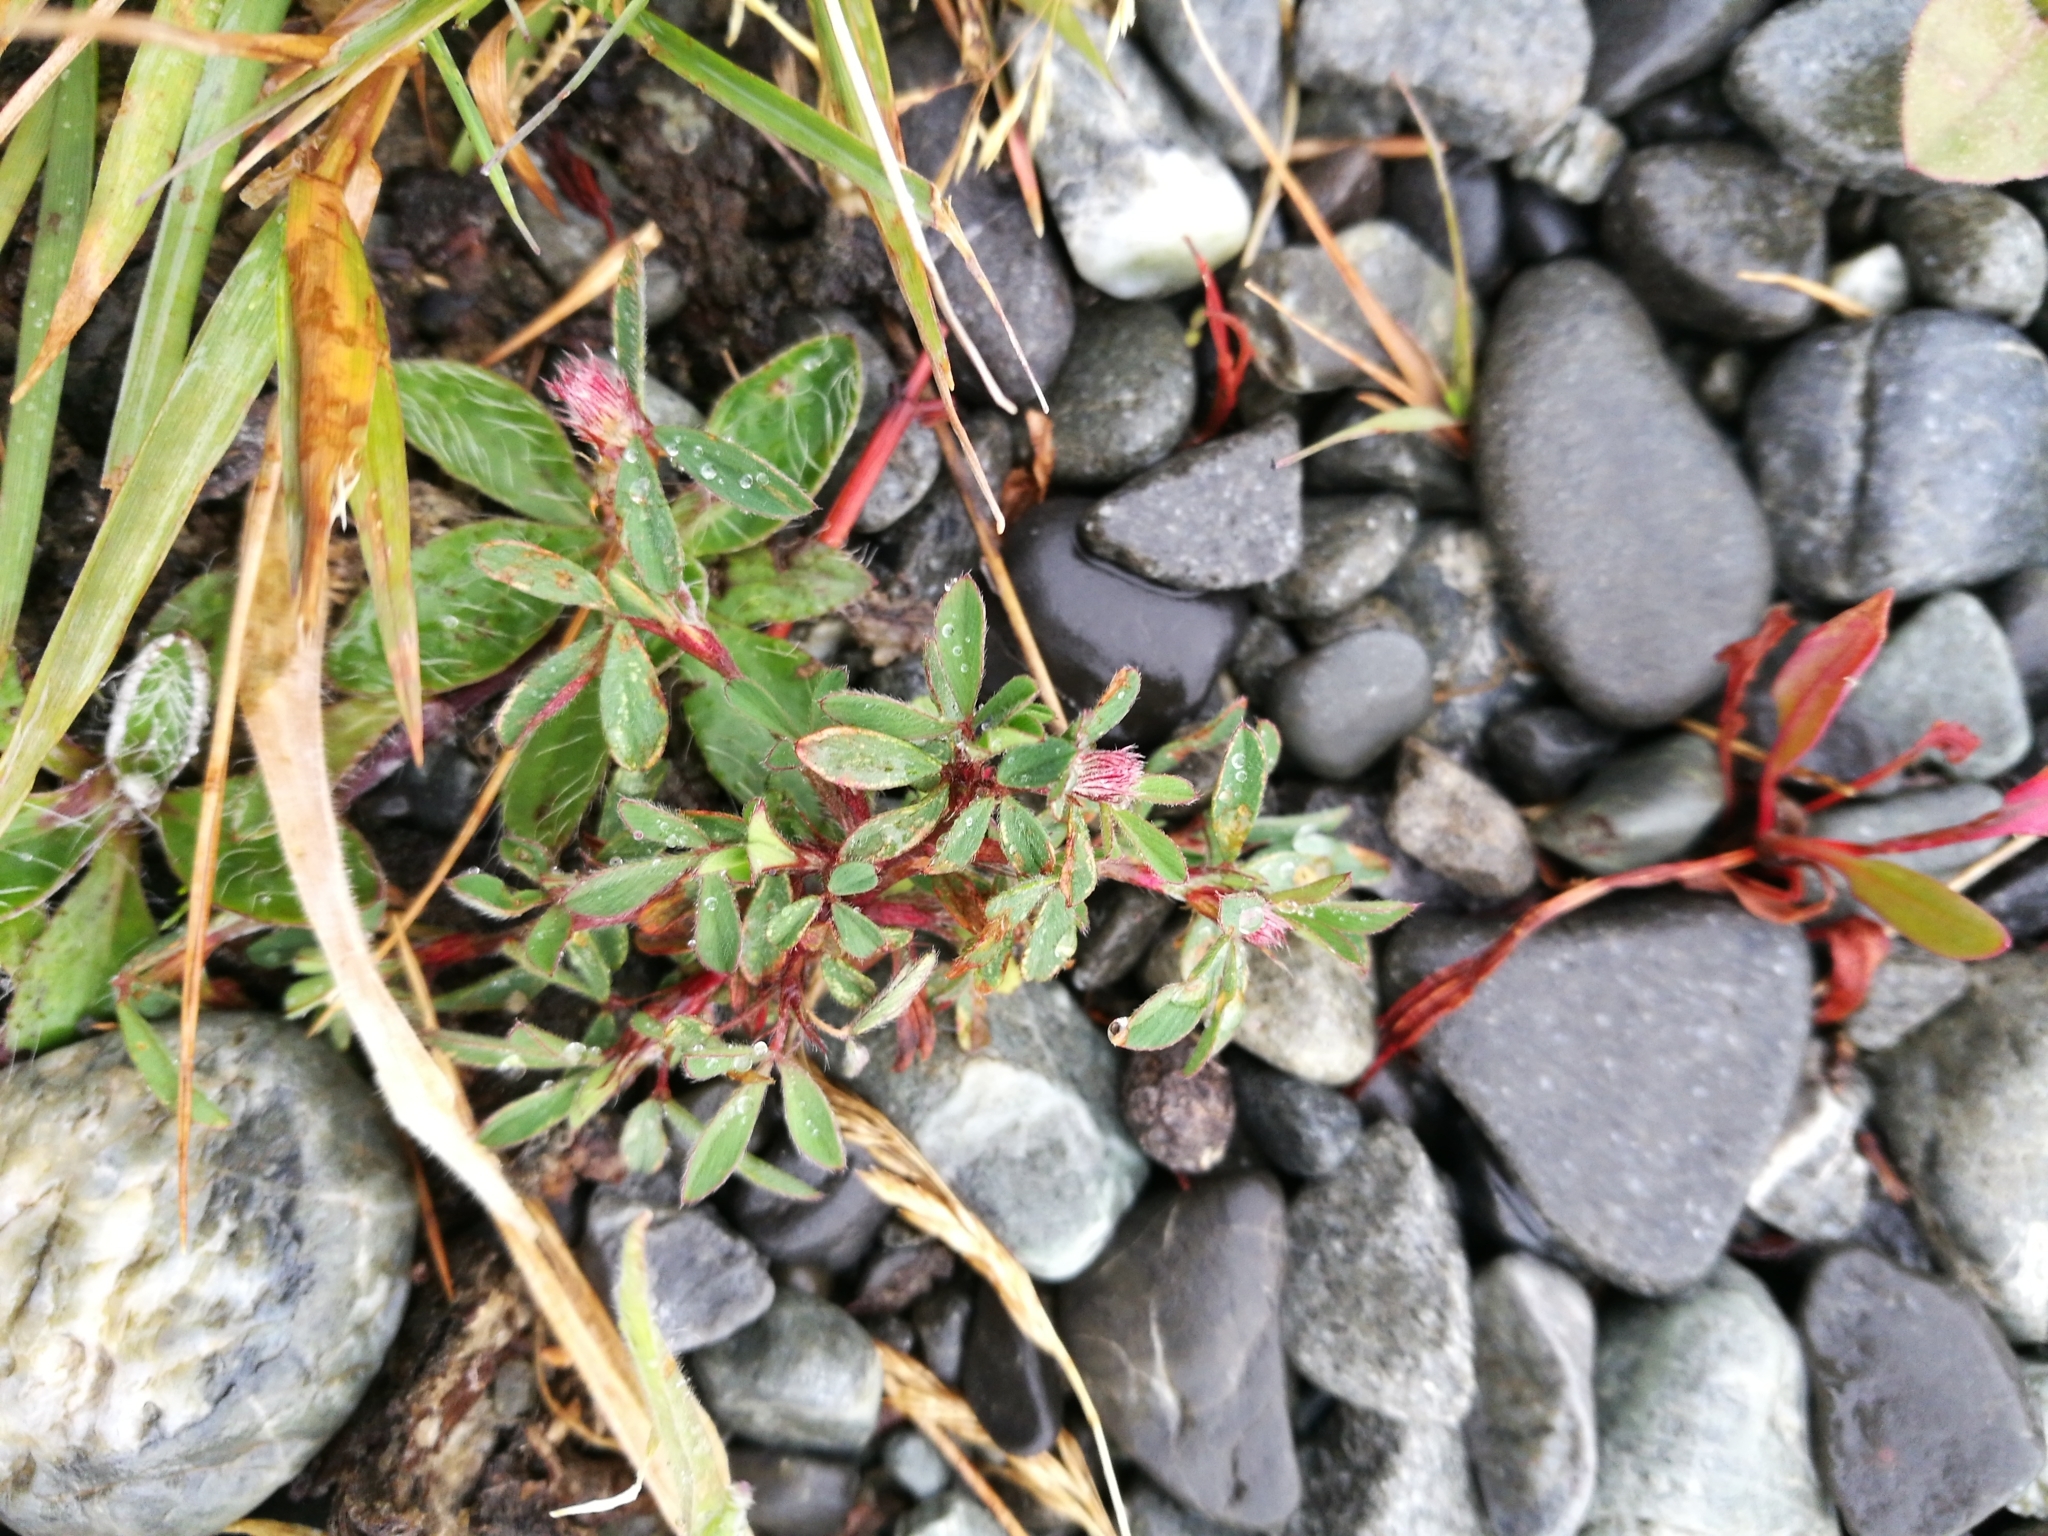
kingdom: Plantae
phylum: Tracheophyta
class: Magnoliopsida
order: Fabales
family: Fabaceae
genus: Trifolium
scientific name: Trifolium arvense
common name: Hare's-foot clover
